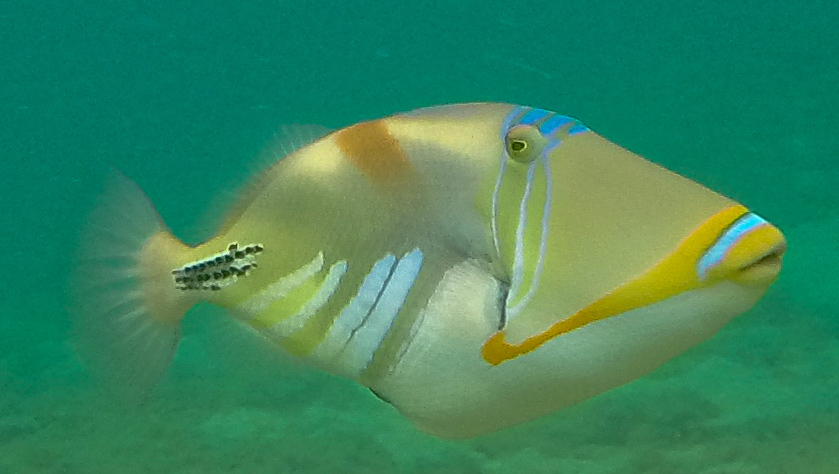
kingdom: Animalia
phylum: Chordata
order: Tetraodontiformes
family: Balistidae
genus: Rhinecanthus
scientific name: Rhinecanthus aculeatus
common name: White-banded triggerfish
